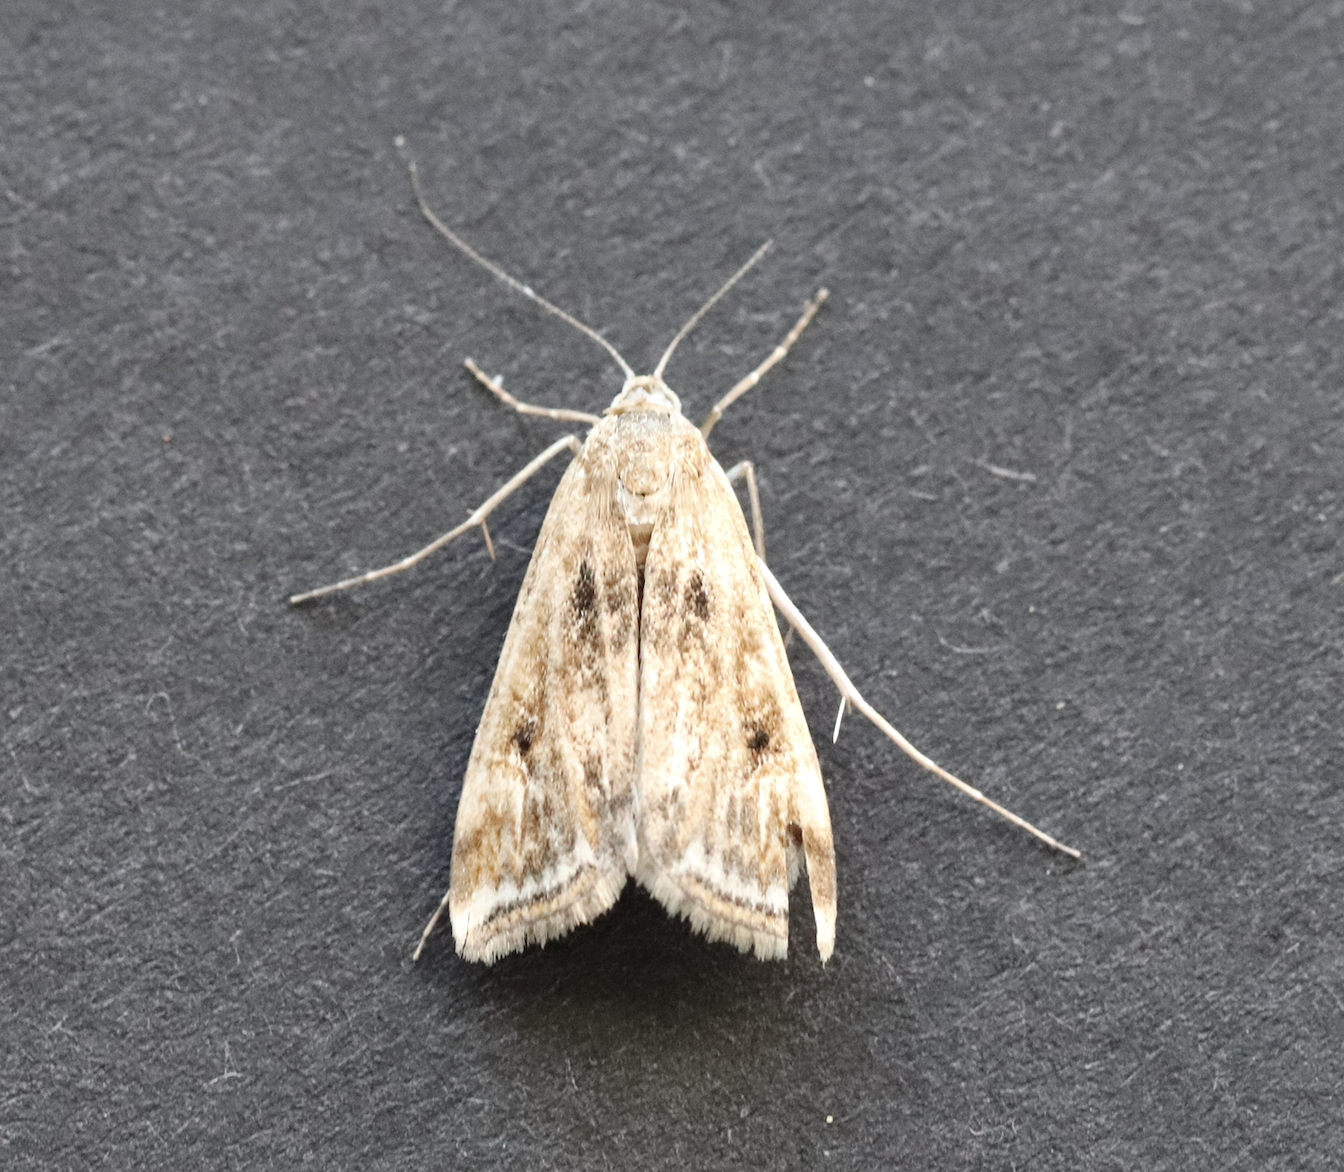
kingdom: Animalia
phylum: Arthropoda
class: Insecta
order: Lepidoptera
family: Crambidae
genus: Cataclysta
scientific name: Cataclysta lemnata
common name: Small china-mark
